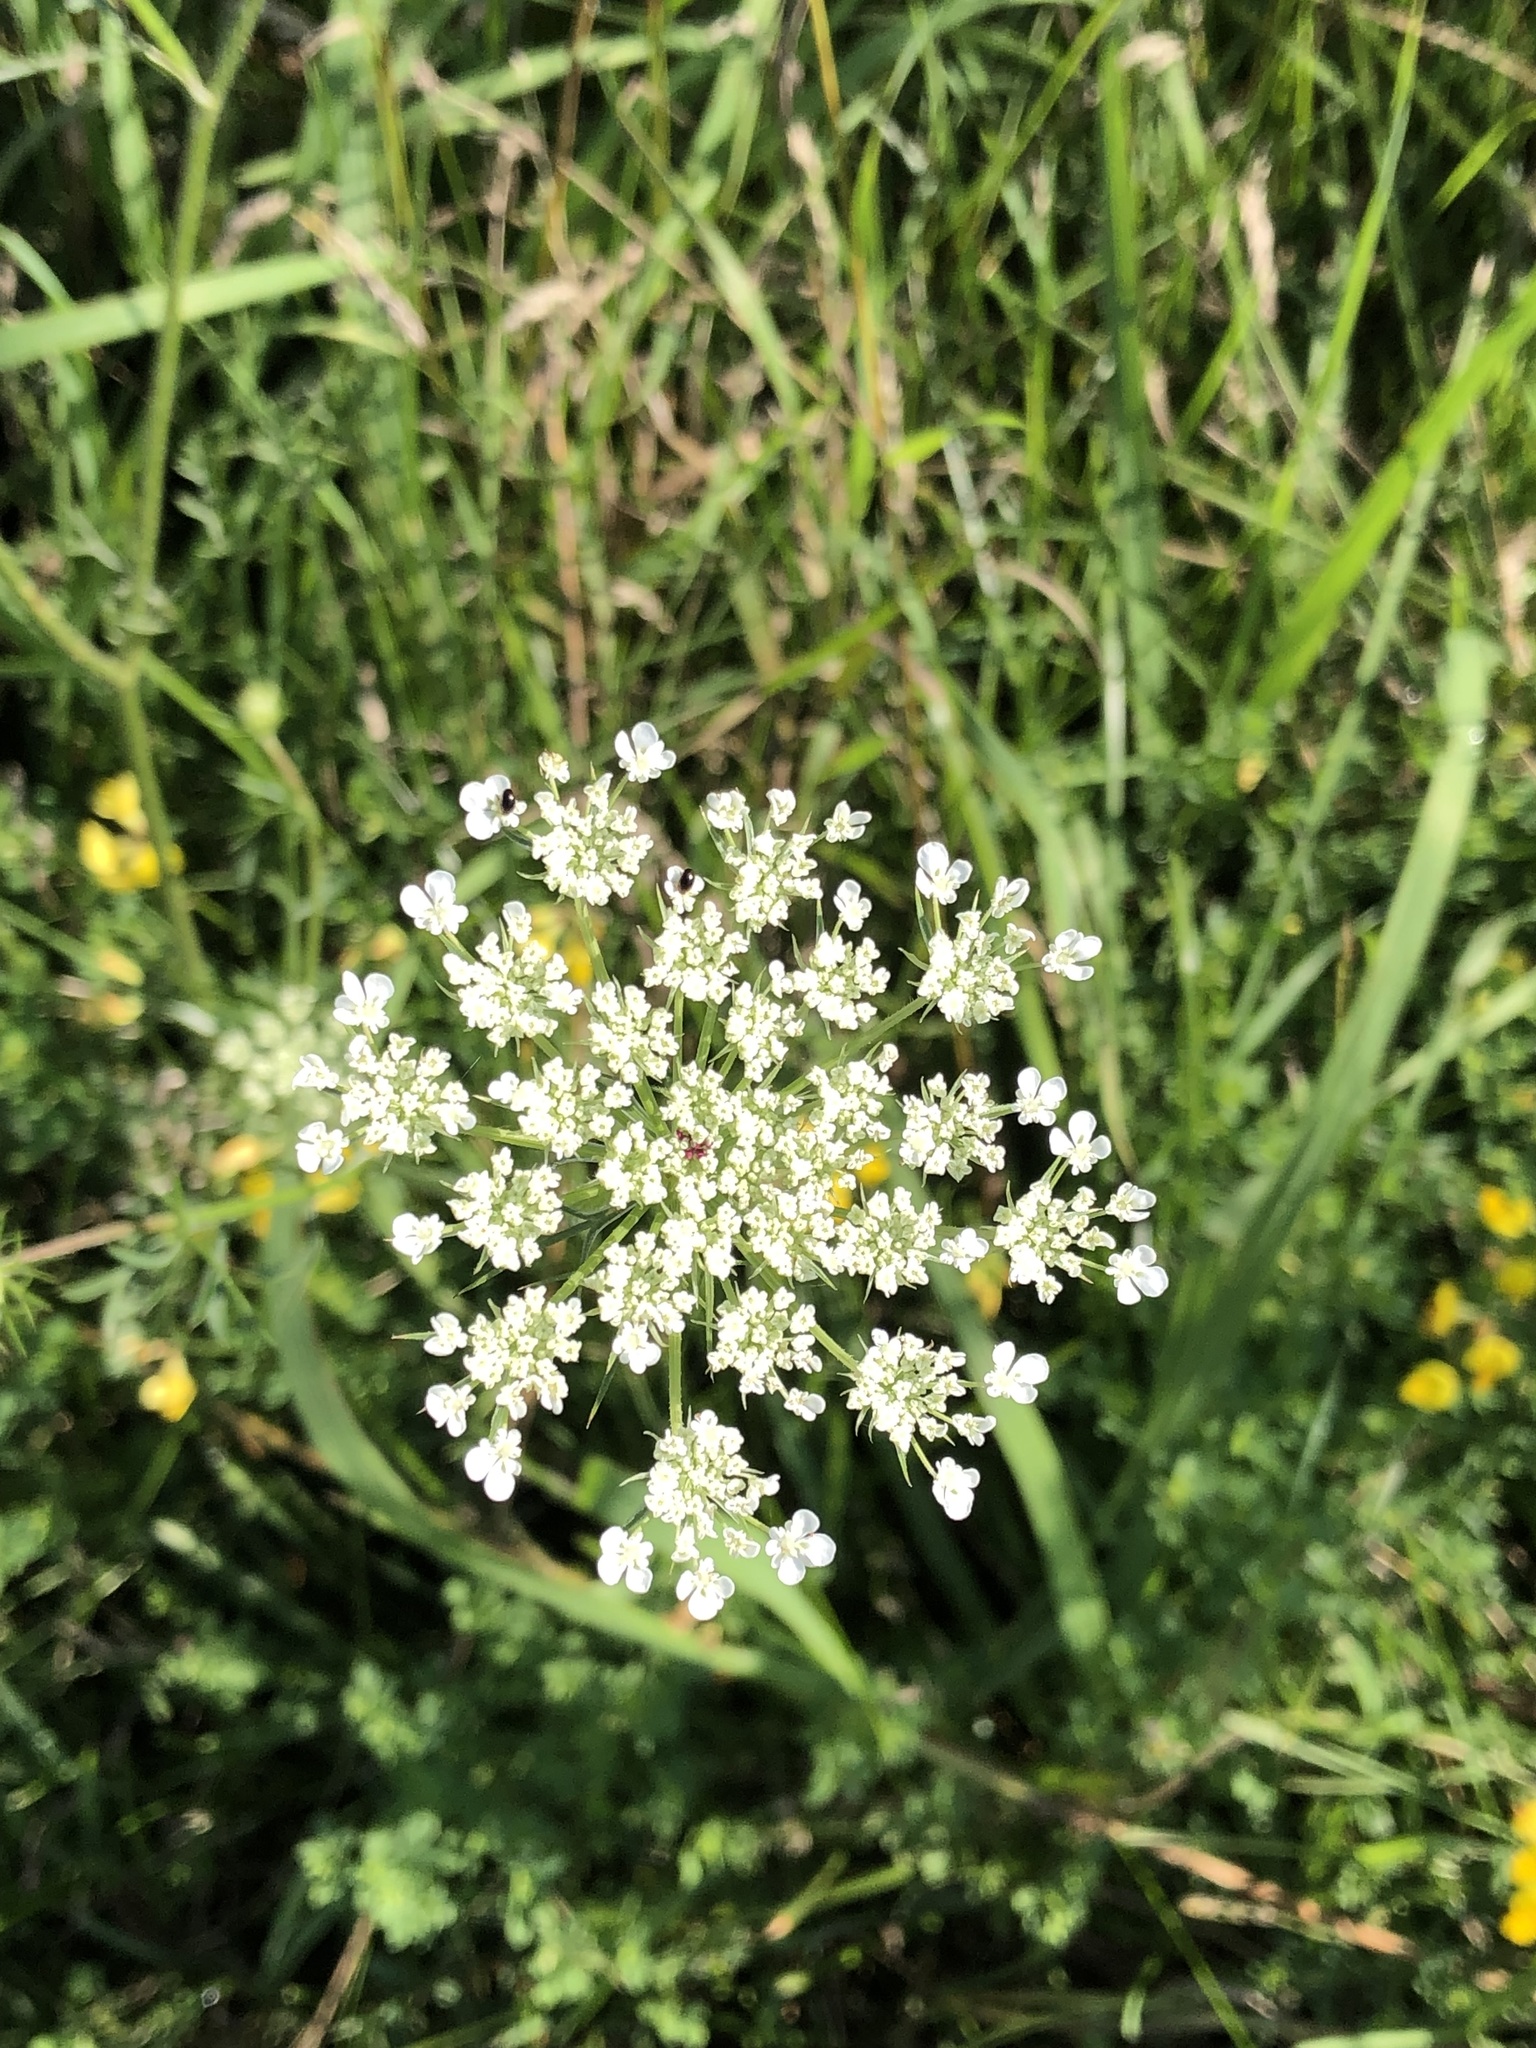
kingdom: Plantae
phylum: Tracheophyta
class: Magnoliopsida
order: Apiales
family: Apiaceae
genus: Daucus
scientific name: Daucus carota
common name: Wild carrot
